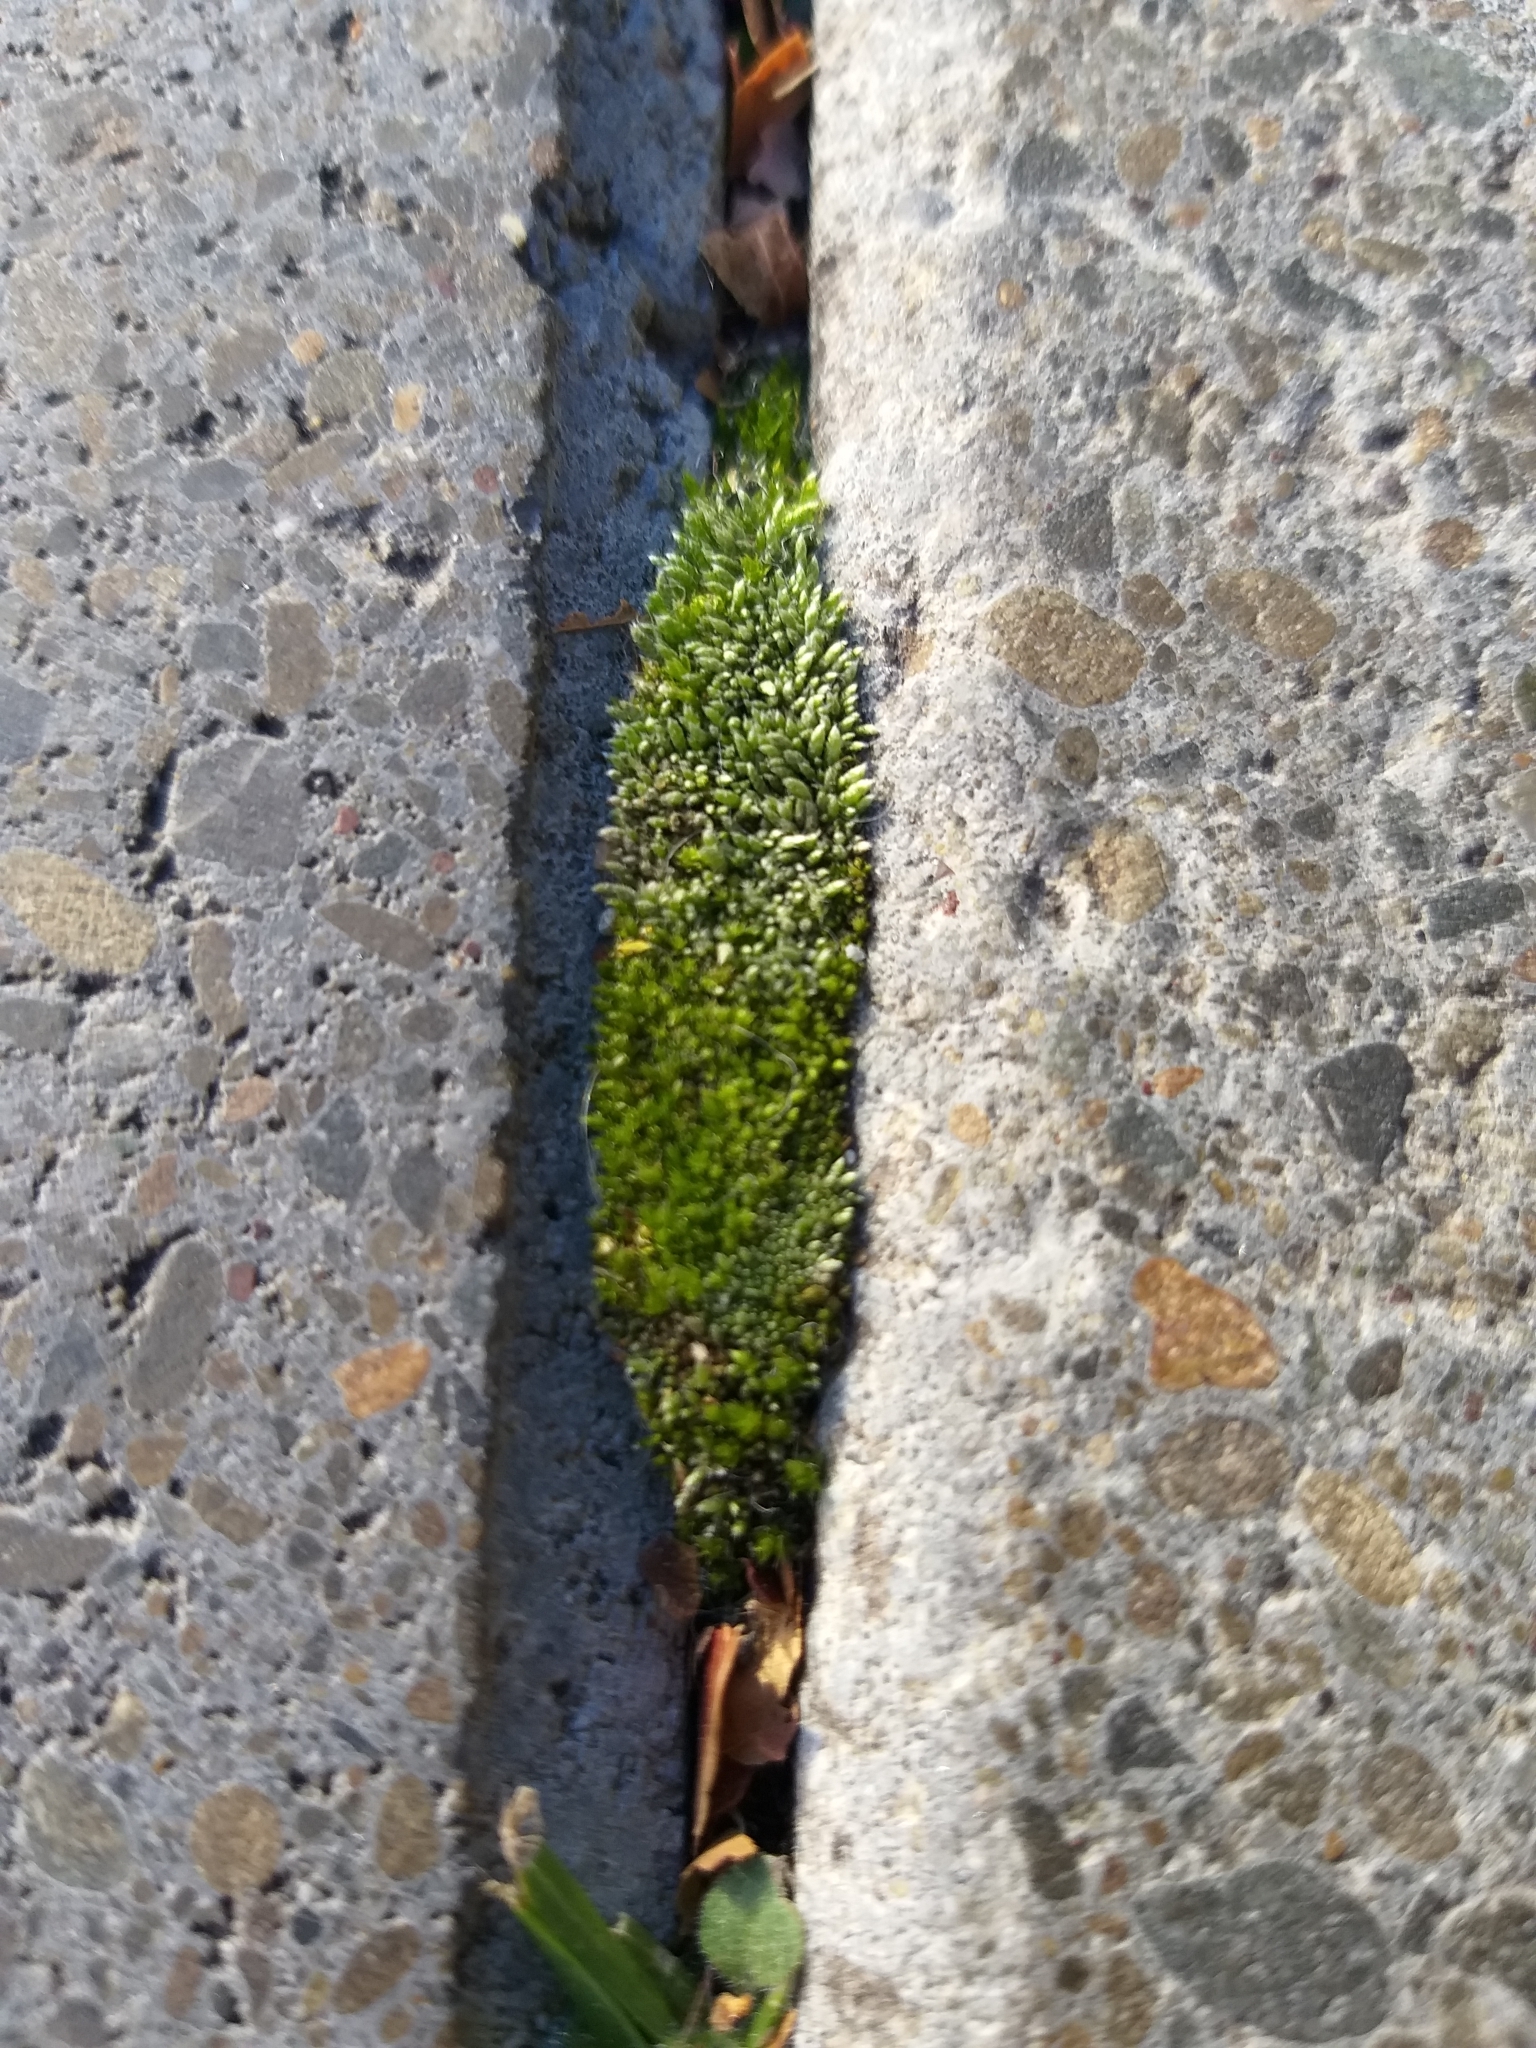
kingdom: Plantae
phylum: Bryophyta
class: Bryopsida
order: Bryales
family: Bryaceae
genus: Bryum
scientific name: Bryum argenteum
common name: Silver-moss
